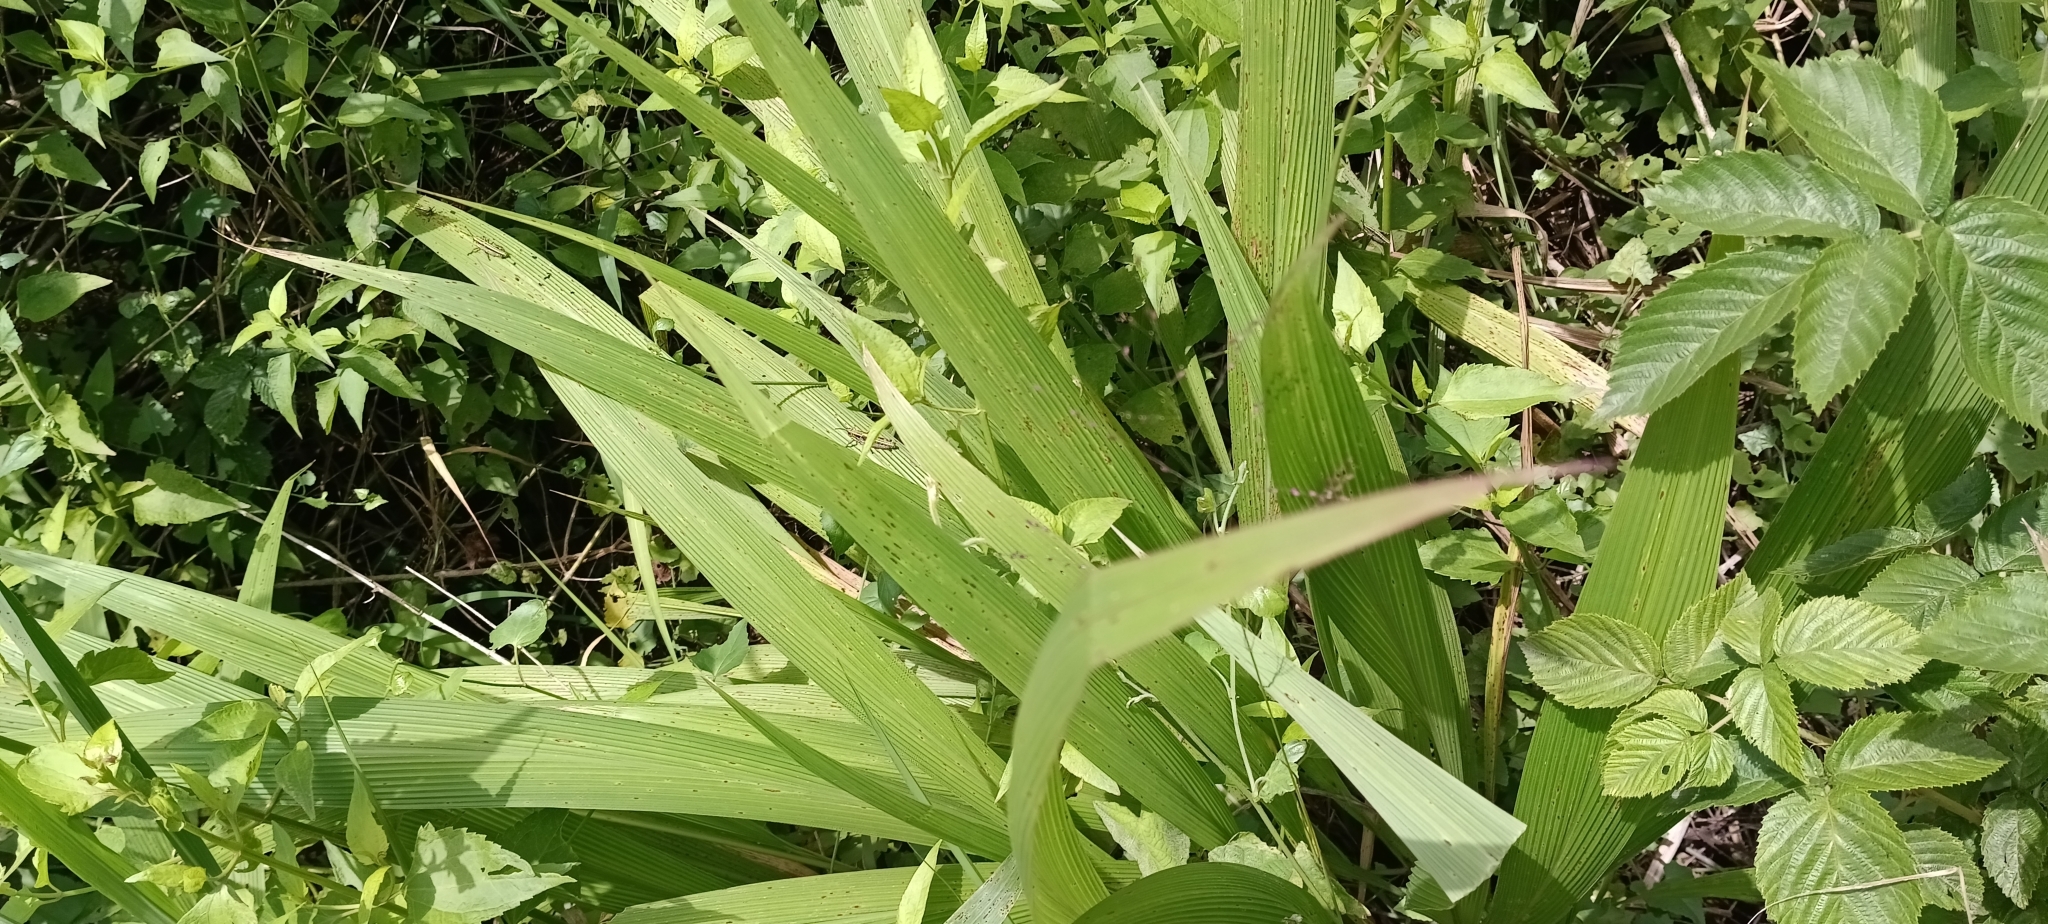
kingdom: Plantae
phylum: Tracheophyta
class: Liliopsida
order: Poales
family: Poaceae
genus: Setaria
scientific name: Setaria megaphylla
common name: Bigleaf bristlegrass
